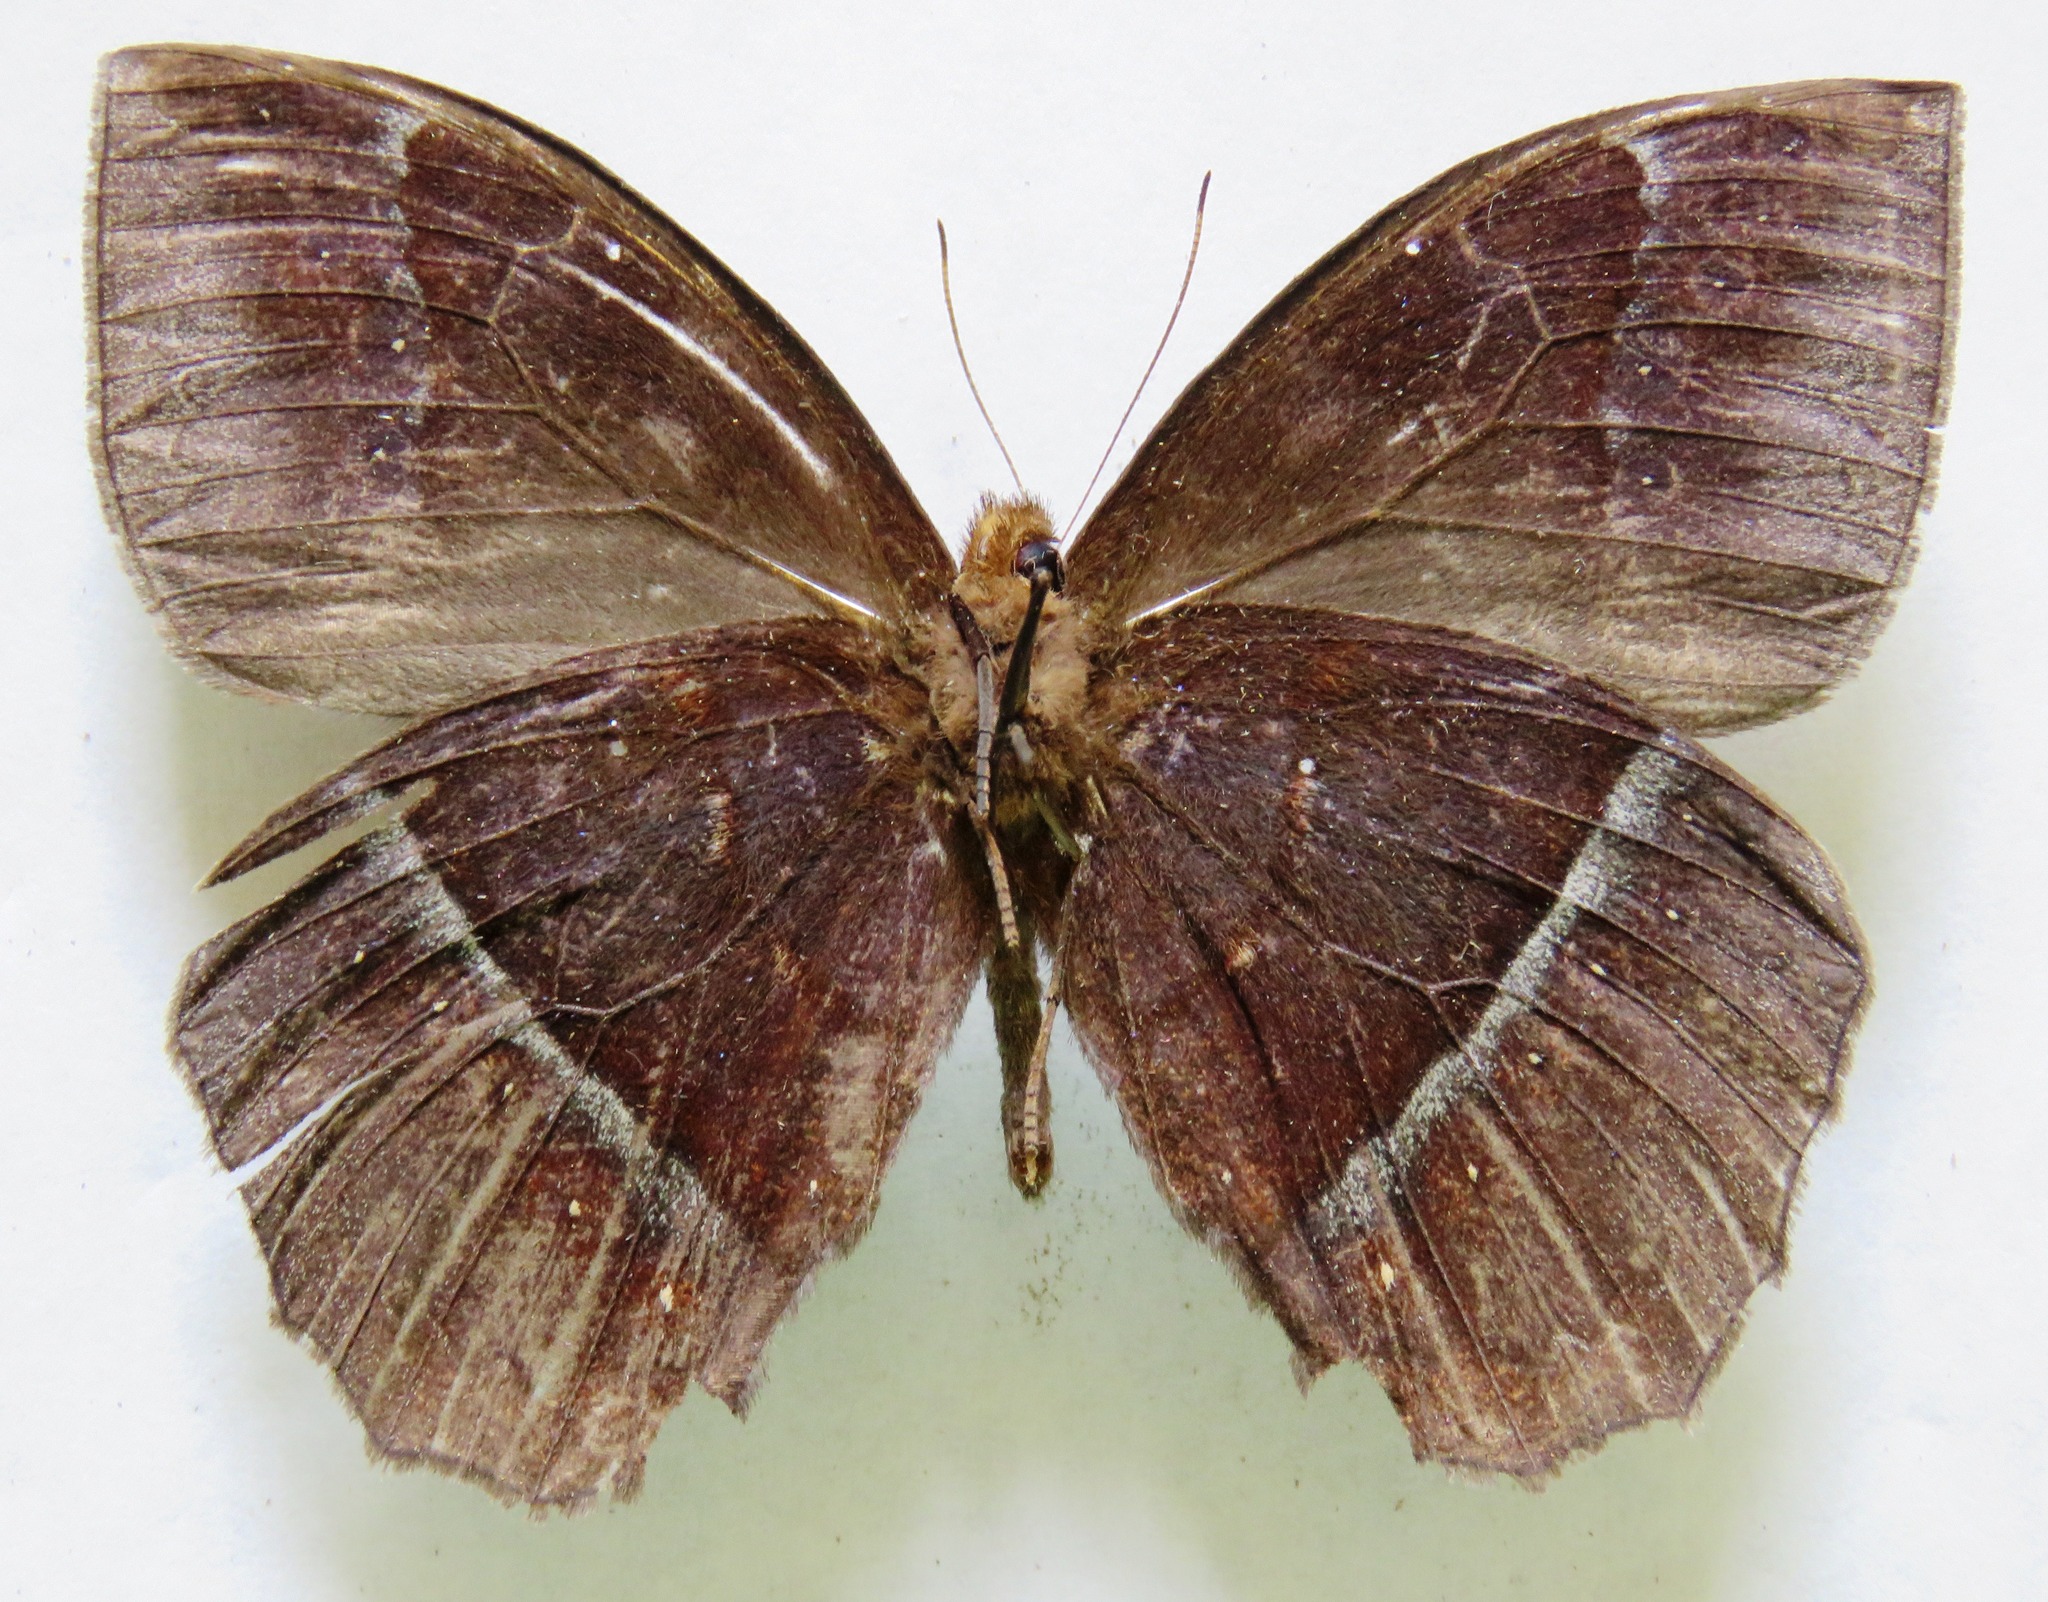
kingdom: Animalia
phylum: Arthropoda
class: Insecta
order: Lepidoptera
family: Nymphalidae
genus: Taygetis
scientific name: Taygetis mermeria
